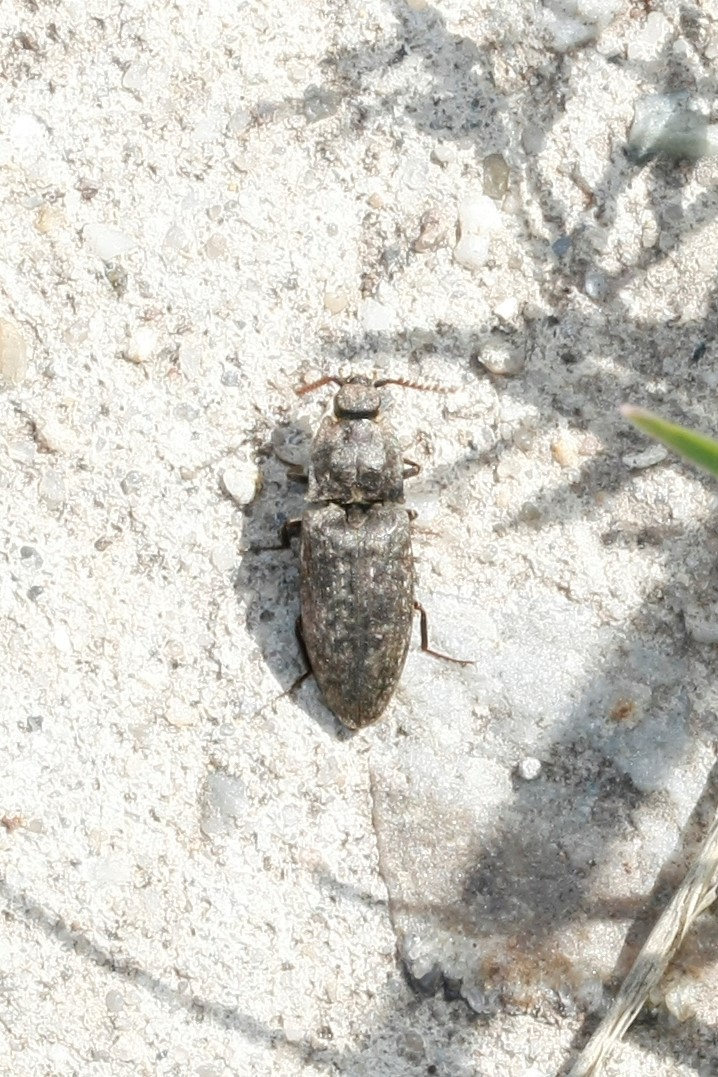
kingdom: Animalia
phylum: Arthropoda
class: Insecta
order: Coleoptera
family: Elateridae
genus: Agrypnus
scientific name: Agrypnus murinus
